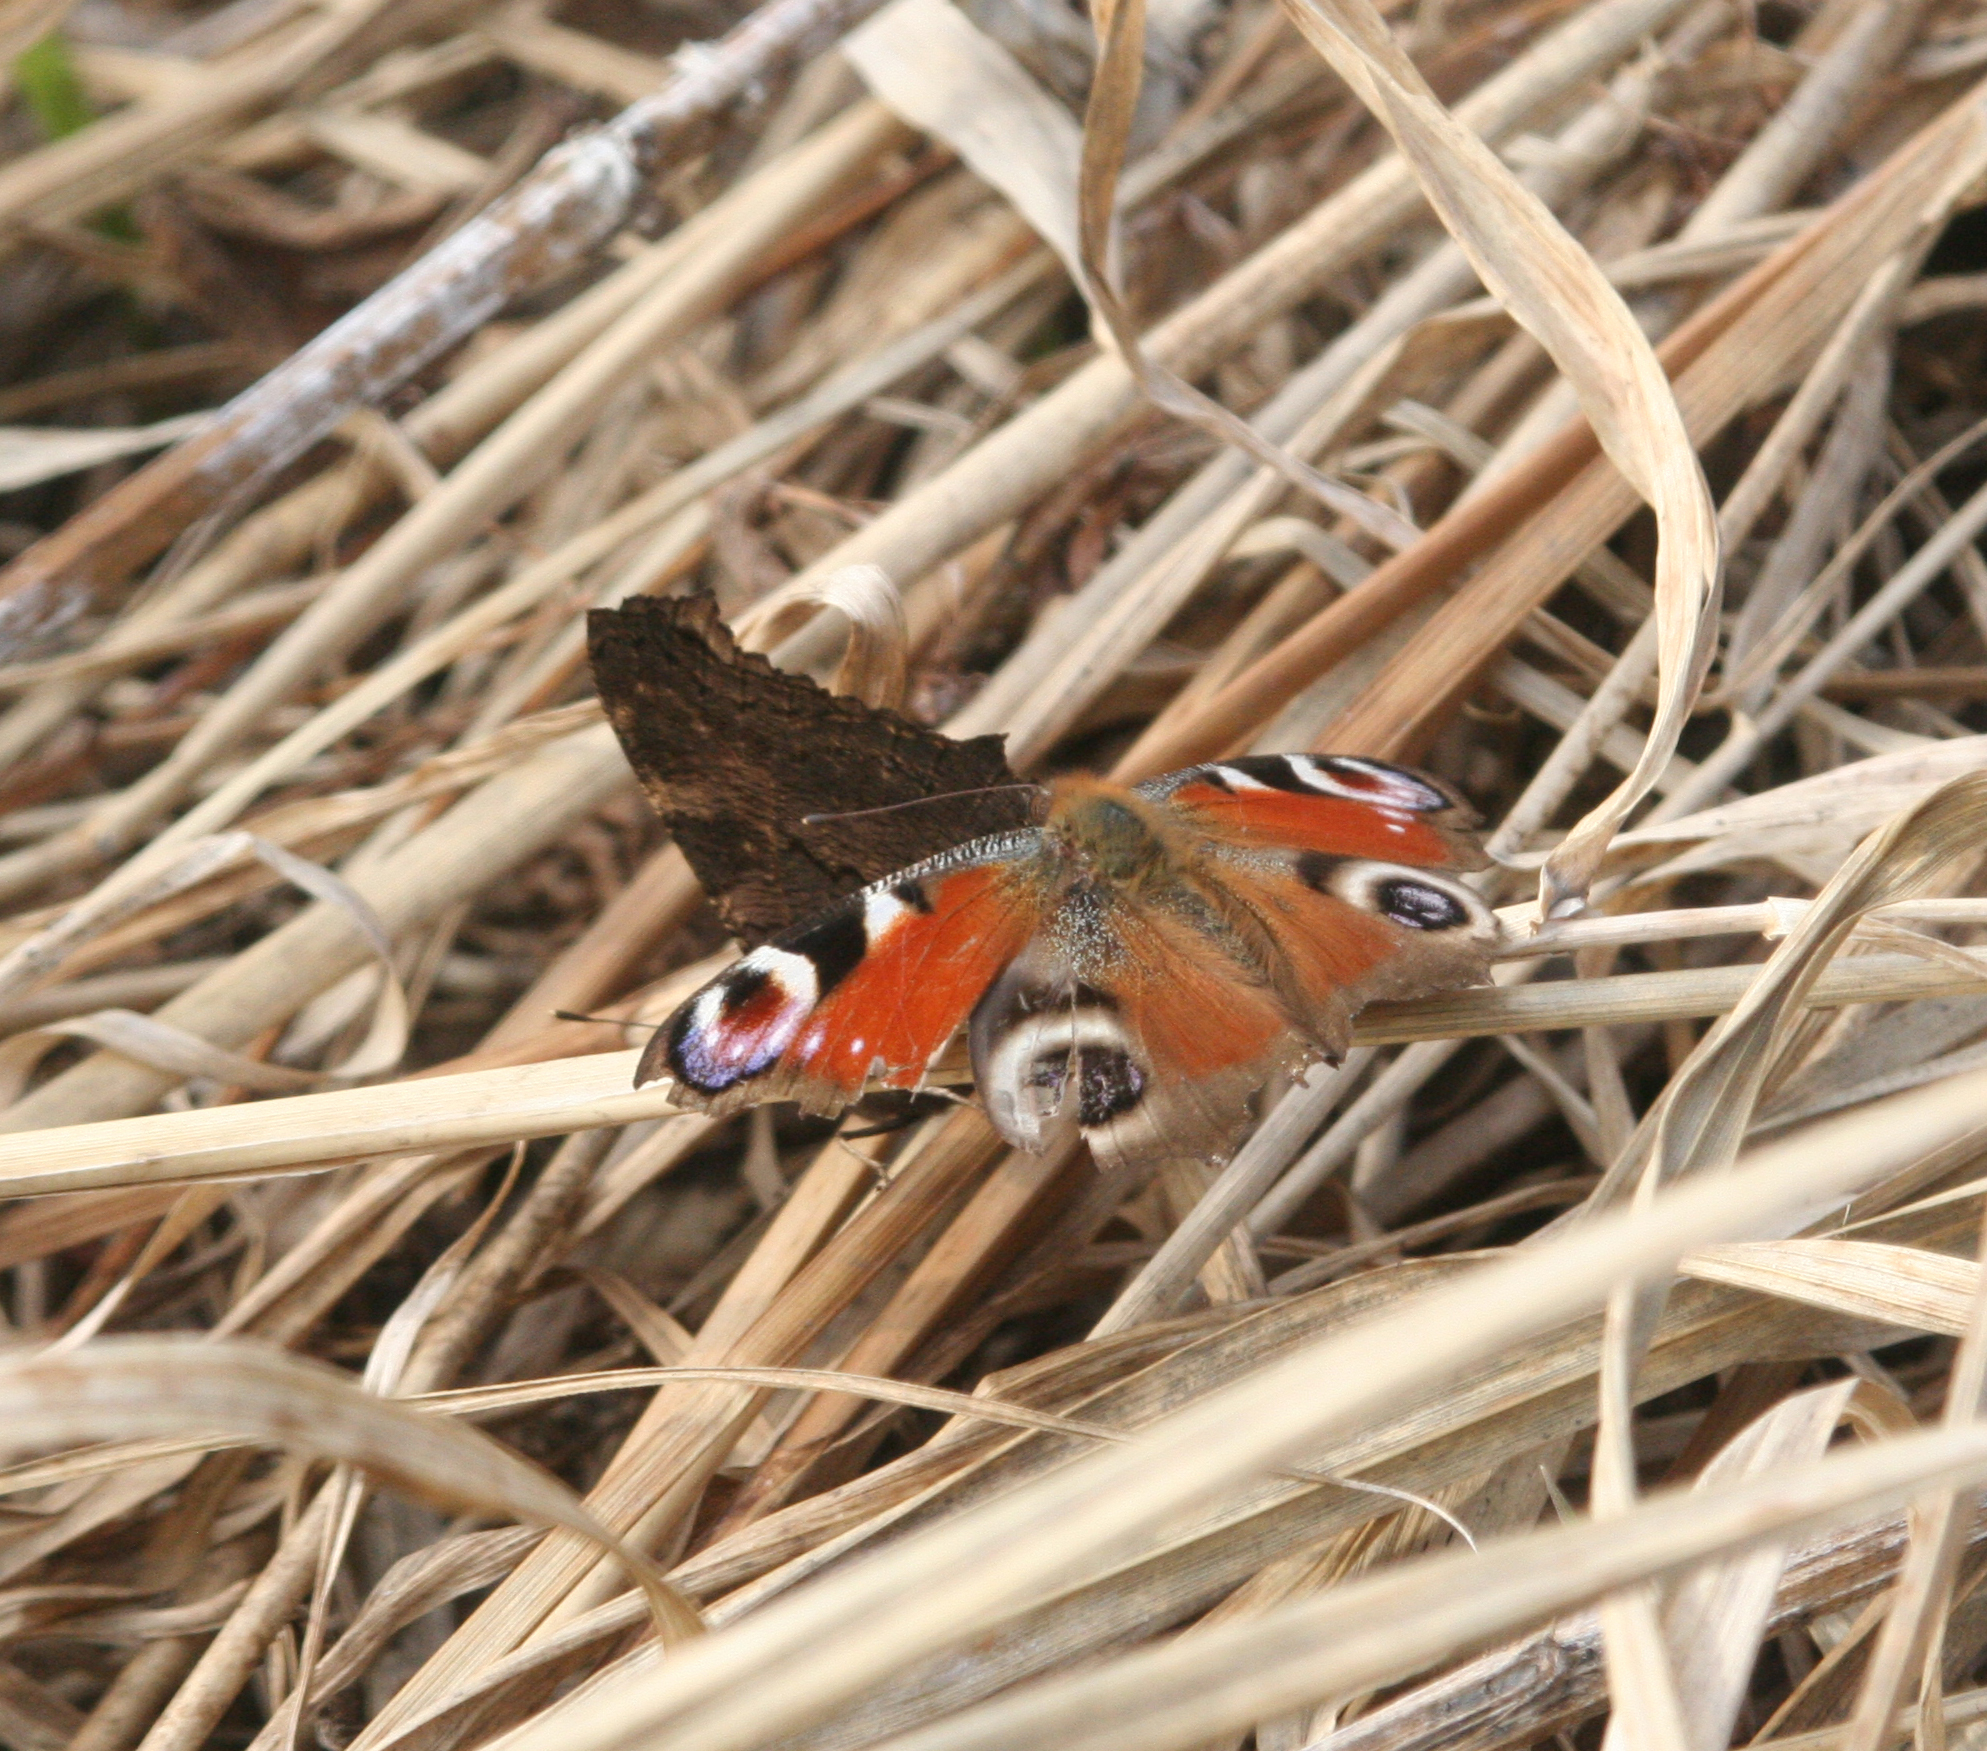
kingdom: Animalia
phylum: Arthropoda
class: Insecta
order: Lepidoptera
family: Nymphalidae
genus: Aglais
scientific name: Aglais io
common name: Peacock
